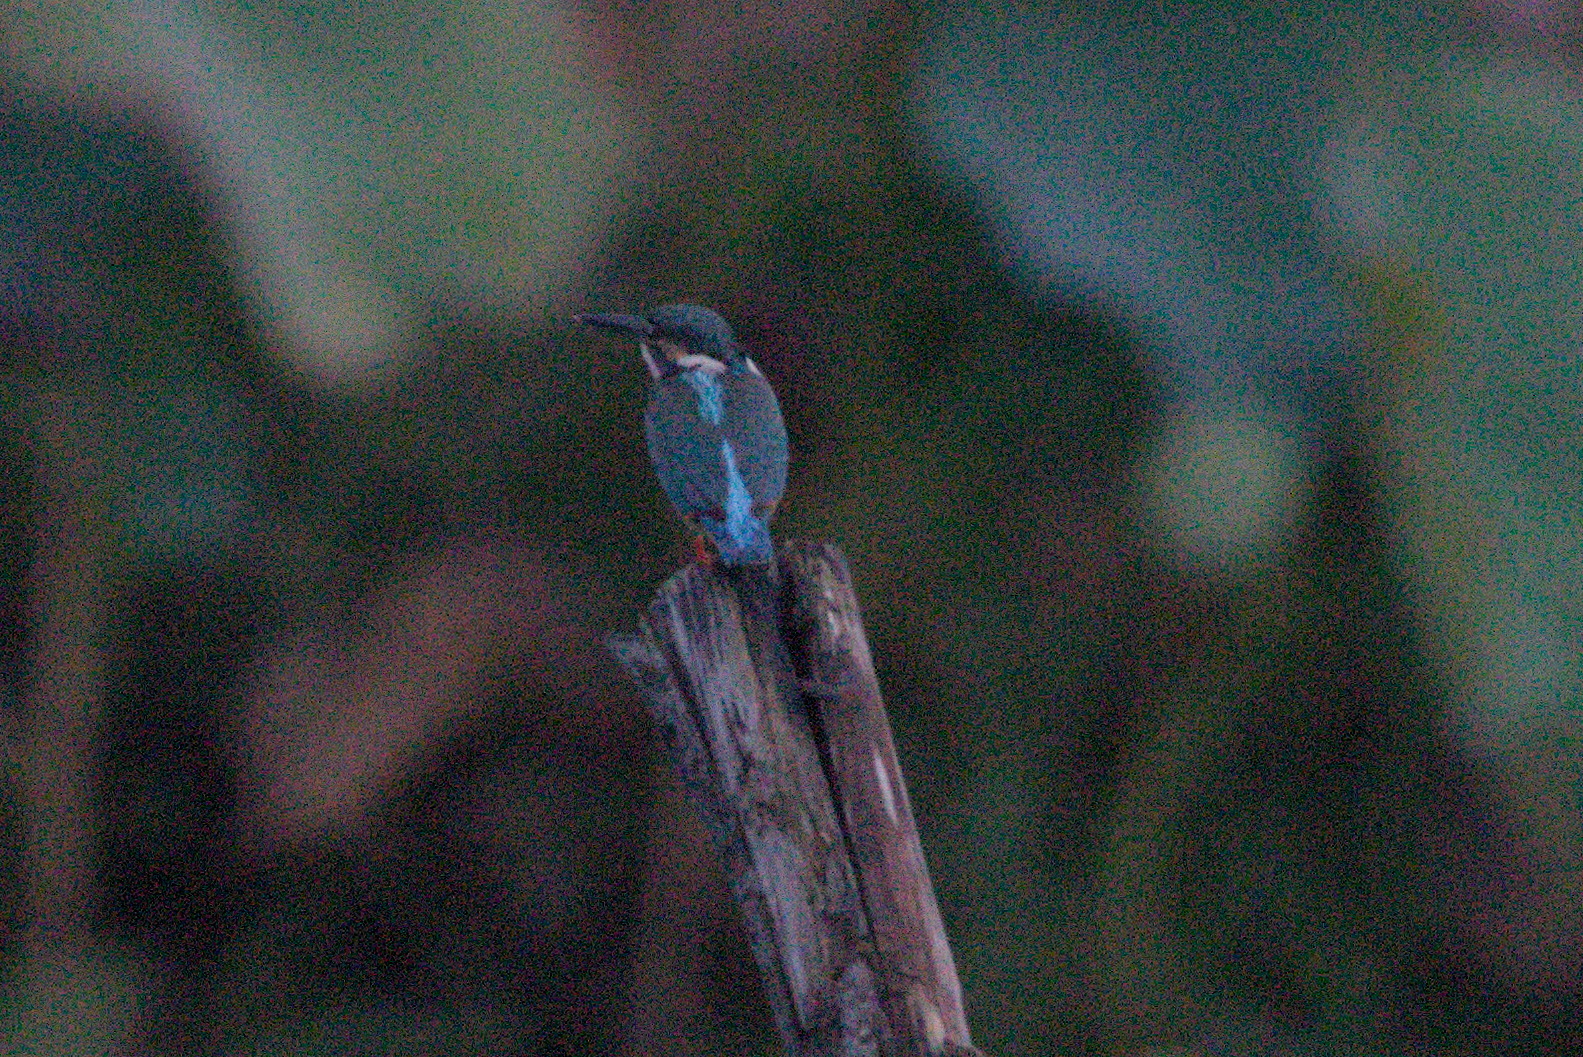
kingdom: Animalia
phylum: Chordata
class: Aves
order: Coraciiformes
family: Alcedinidae
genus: Alcedo
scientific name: Alcedo atthis
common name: Common kingfisher
